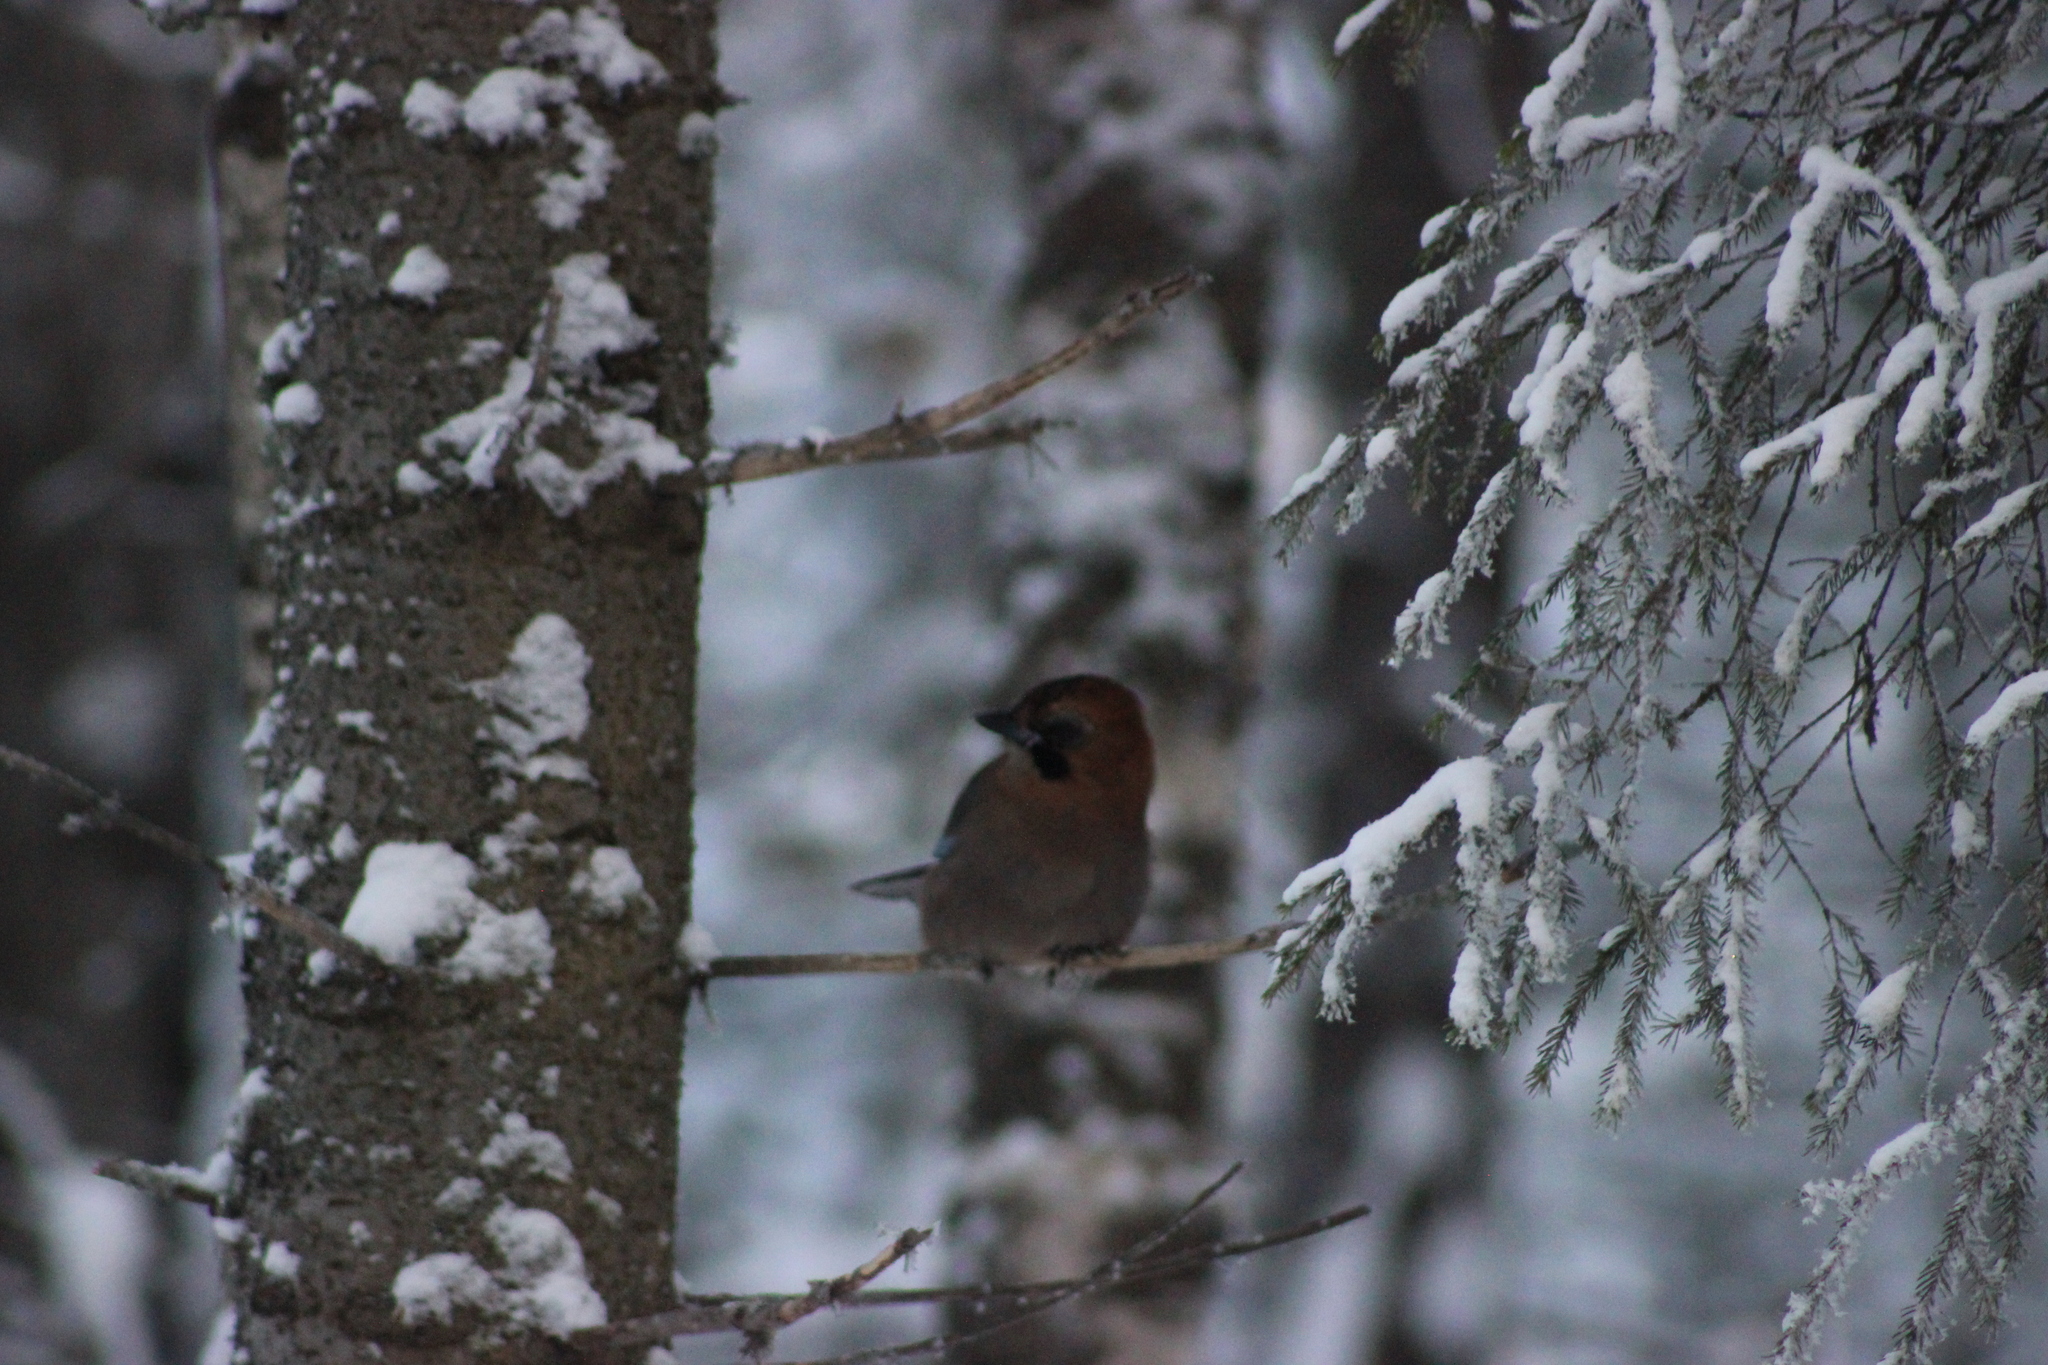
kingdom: Animalia
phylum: Chordata
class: Aves
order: Passeriformes
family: Corvidae
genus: Garrulus
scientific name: Garrulus glandarius
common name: Eurasian jay
